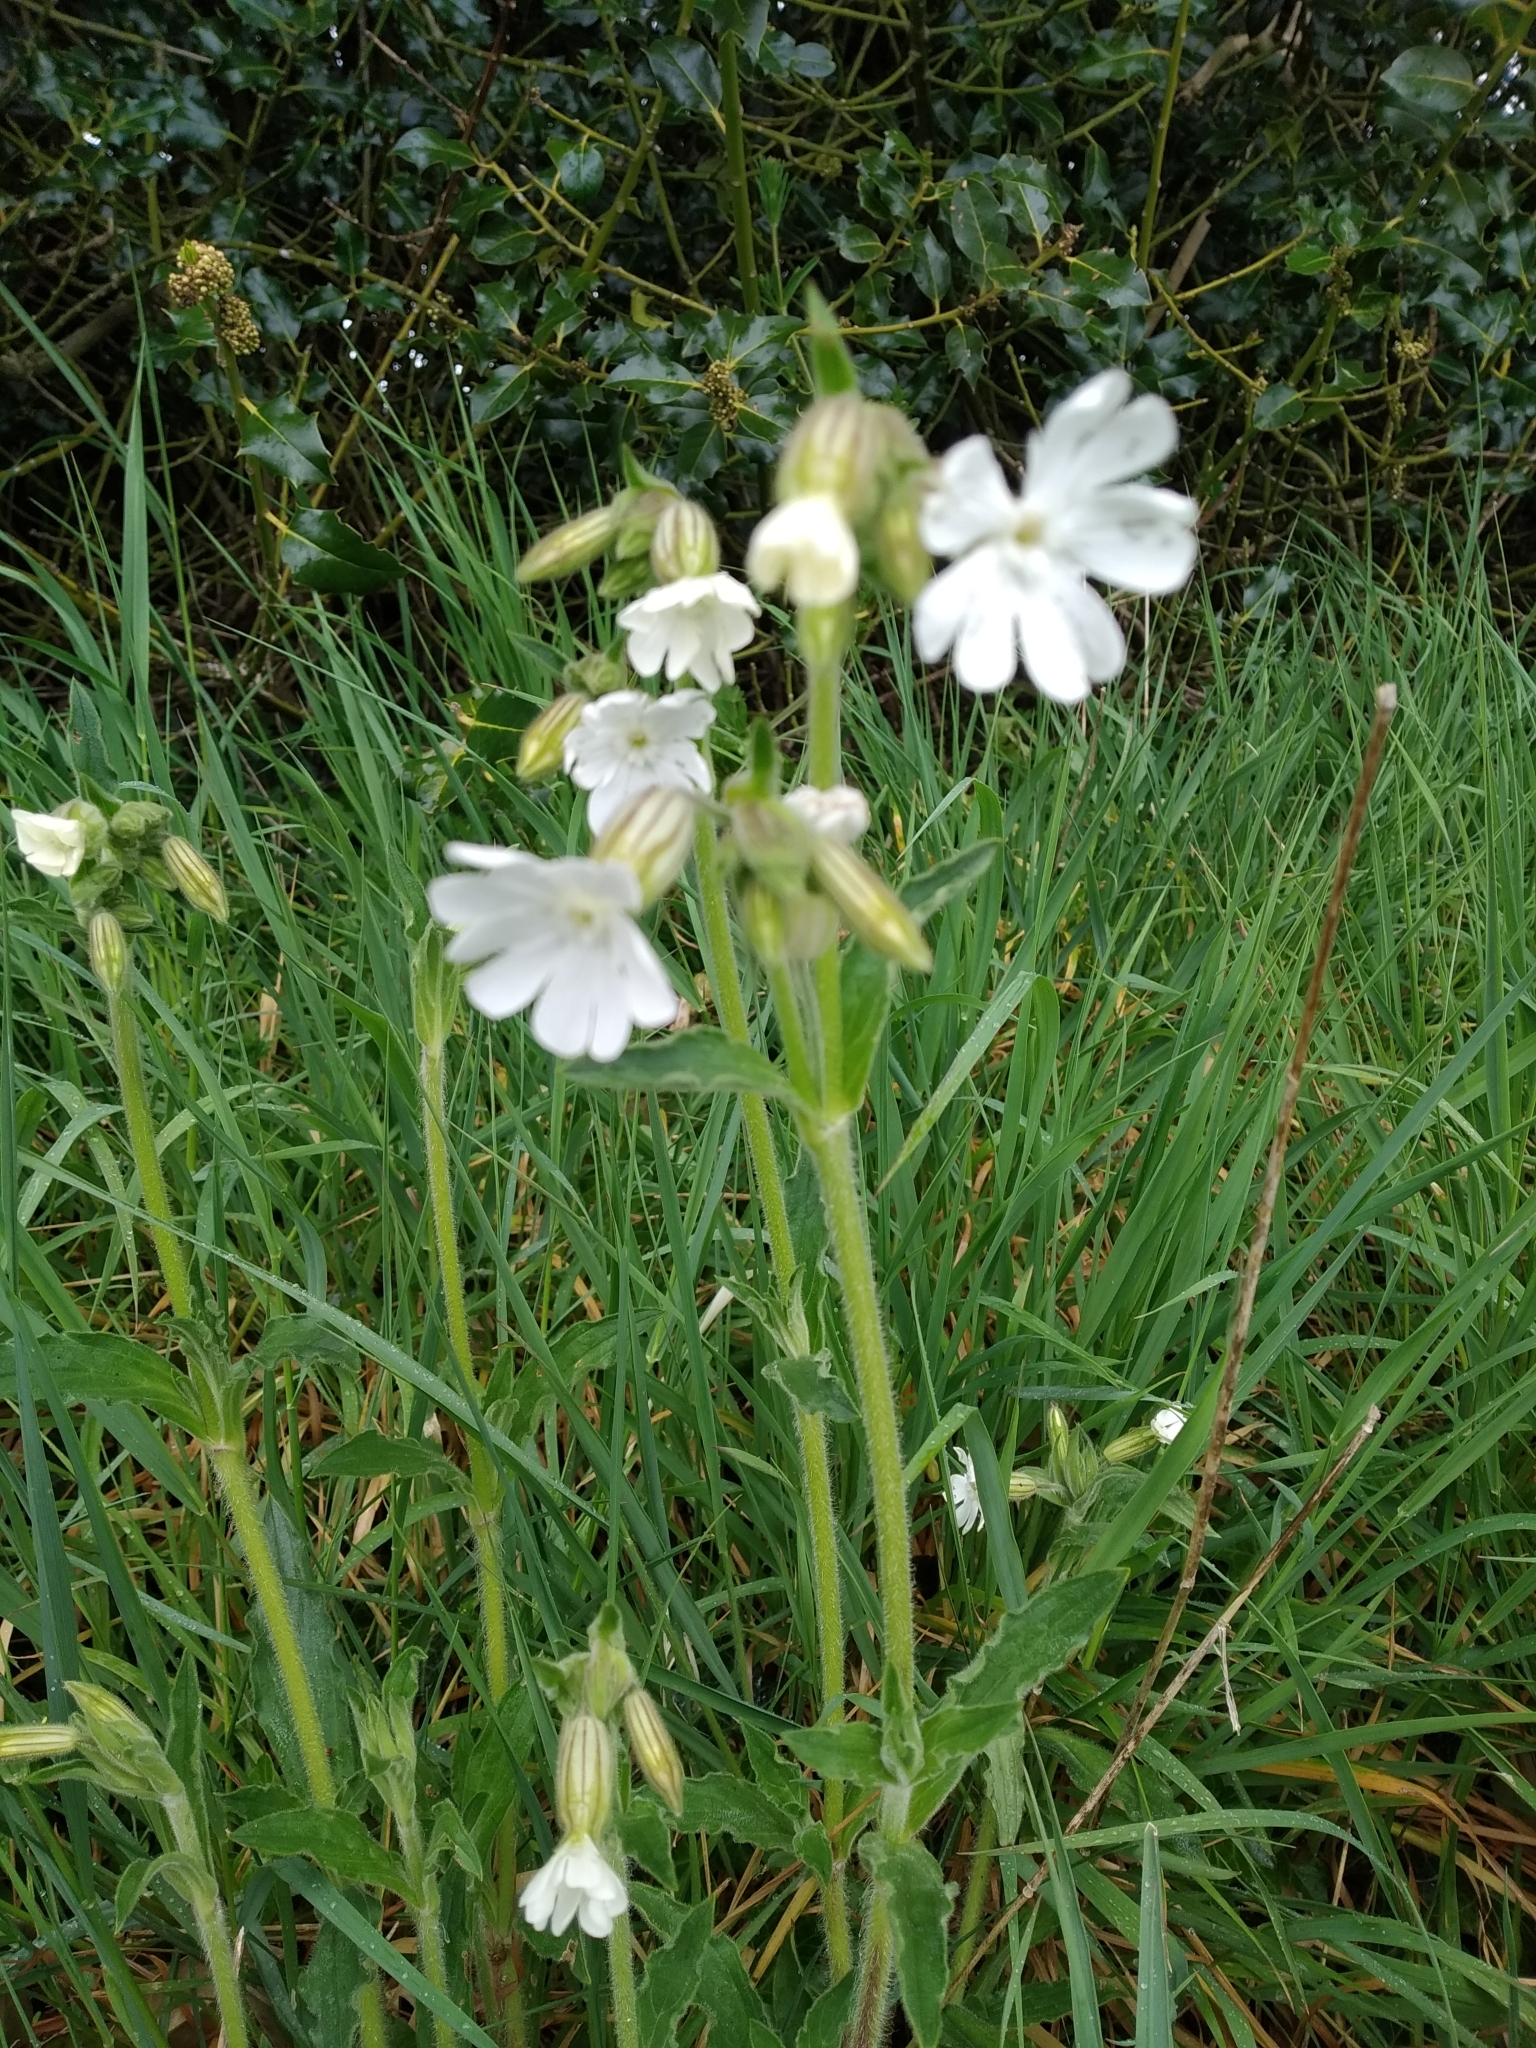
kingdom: Plantae
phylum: Tracheophyta
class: Magnoliopsida
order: Caryophyllales
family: Caryophyllaceae
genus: Silene
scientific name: Silene latifolia
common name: White campion
